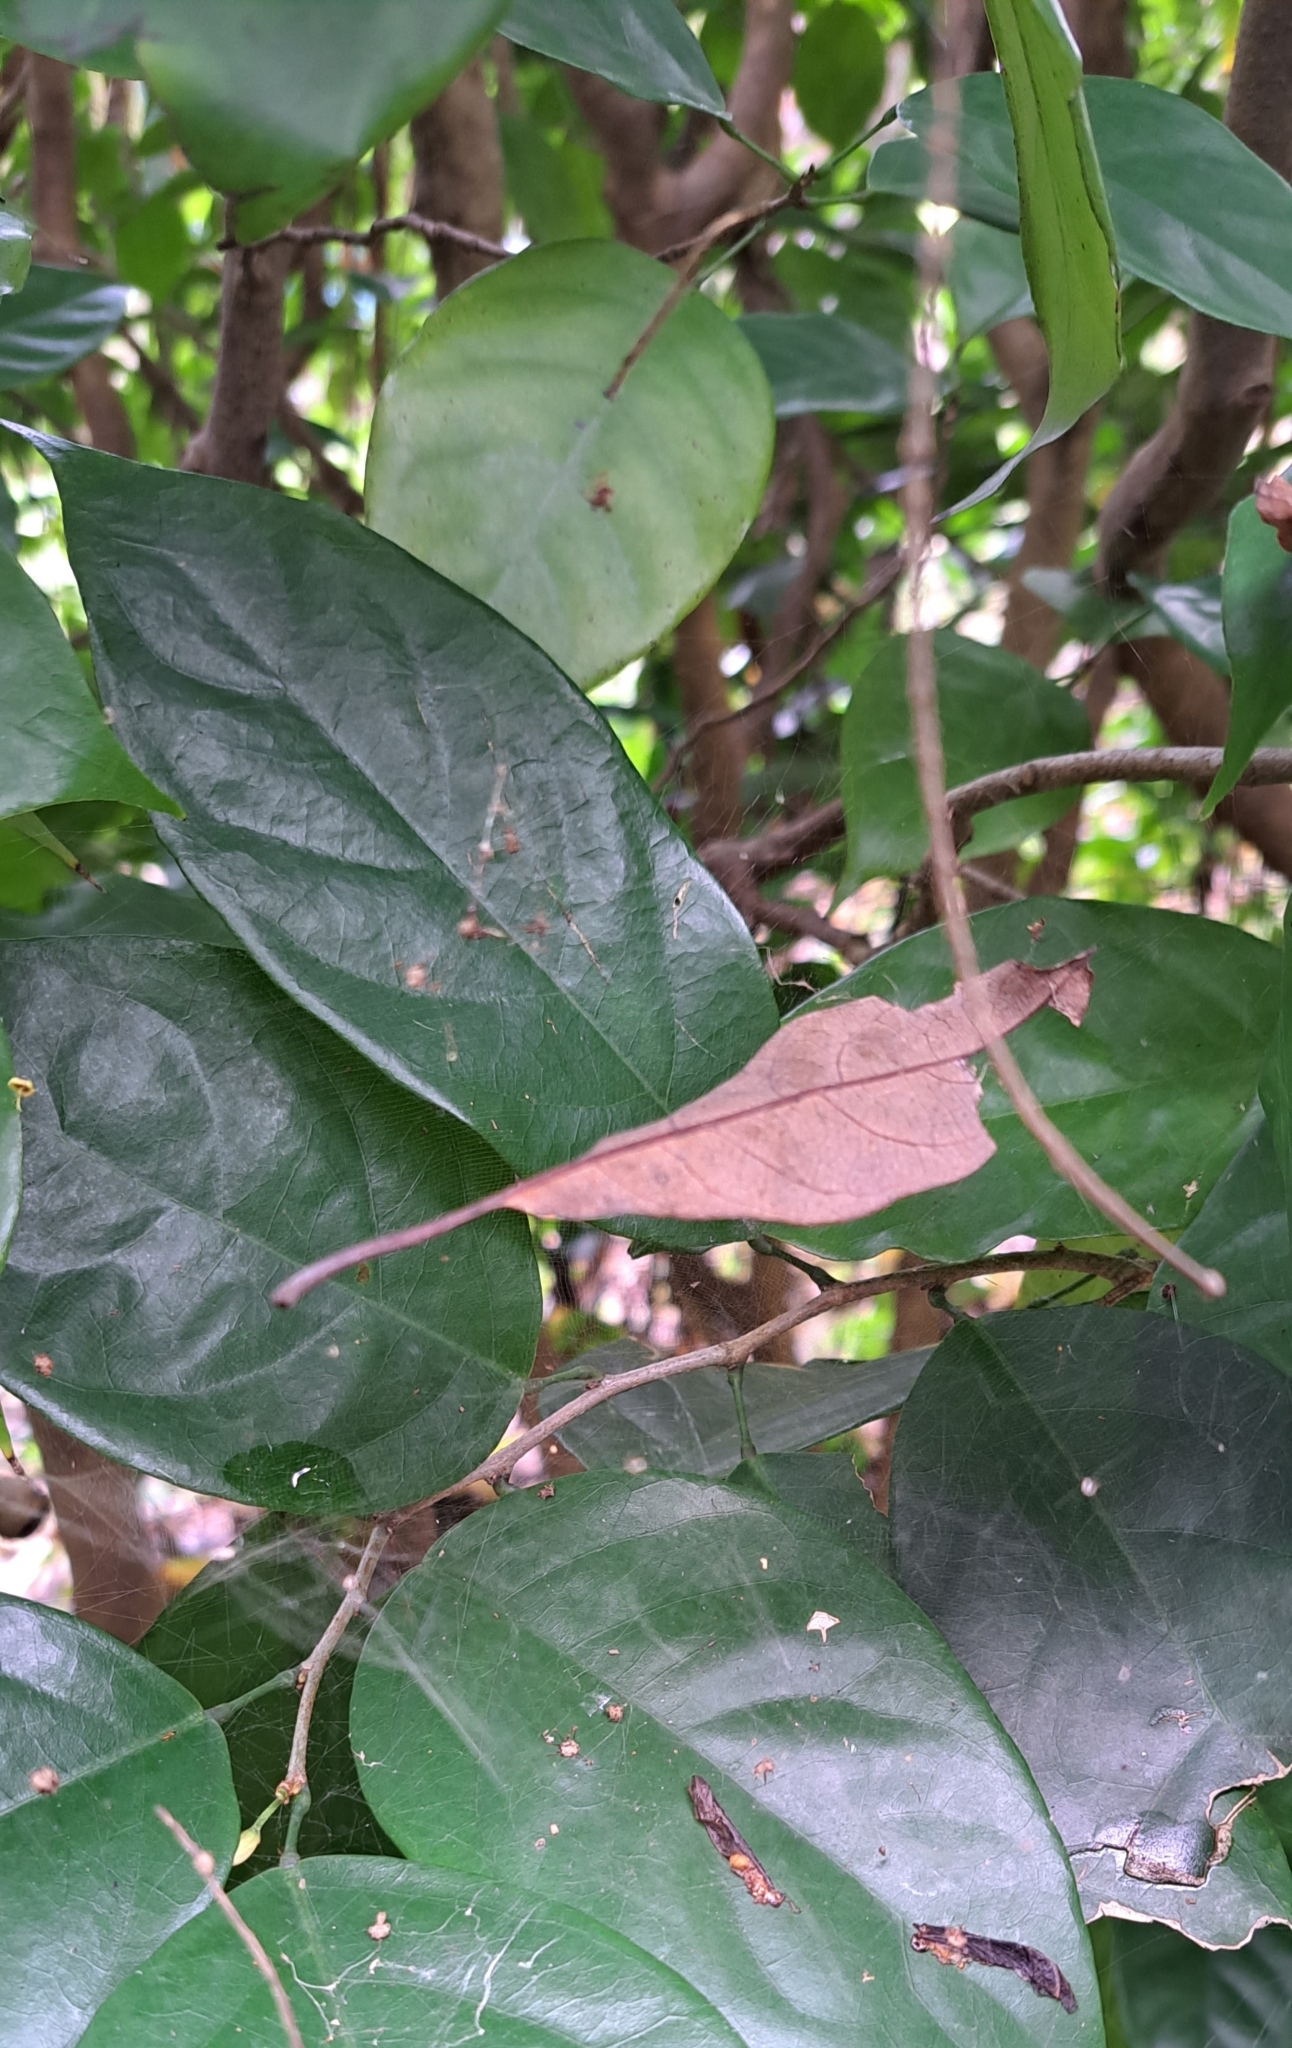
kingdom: Animalia
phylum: Arthropoda
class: Arachnida
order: Araneae
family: Araneidae
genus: Cyrtophora
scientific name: Cyrtophora unicolor
